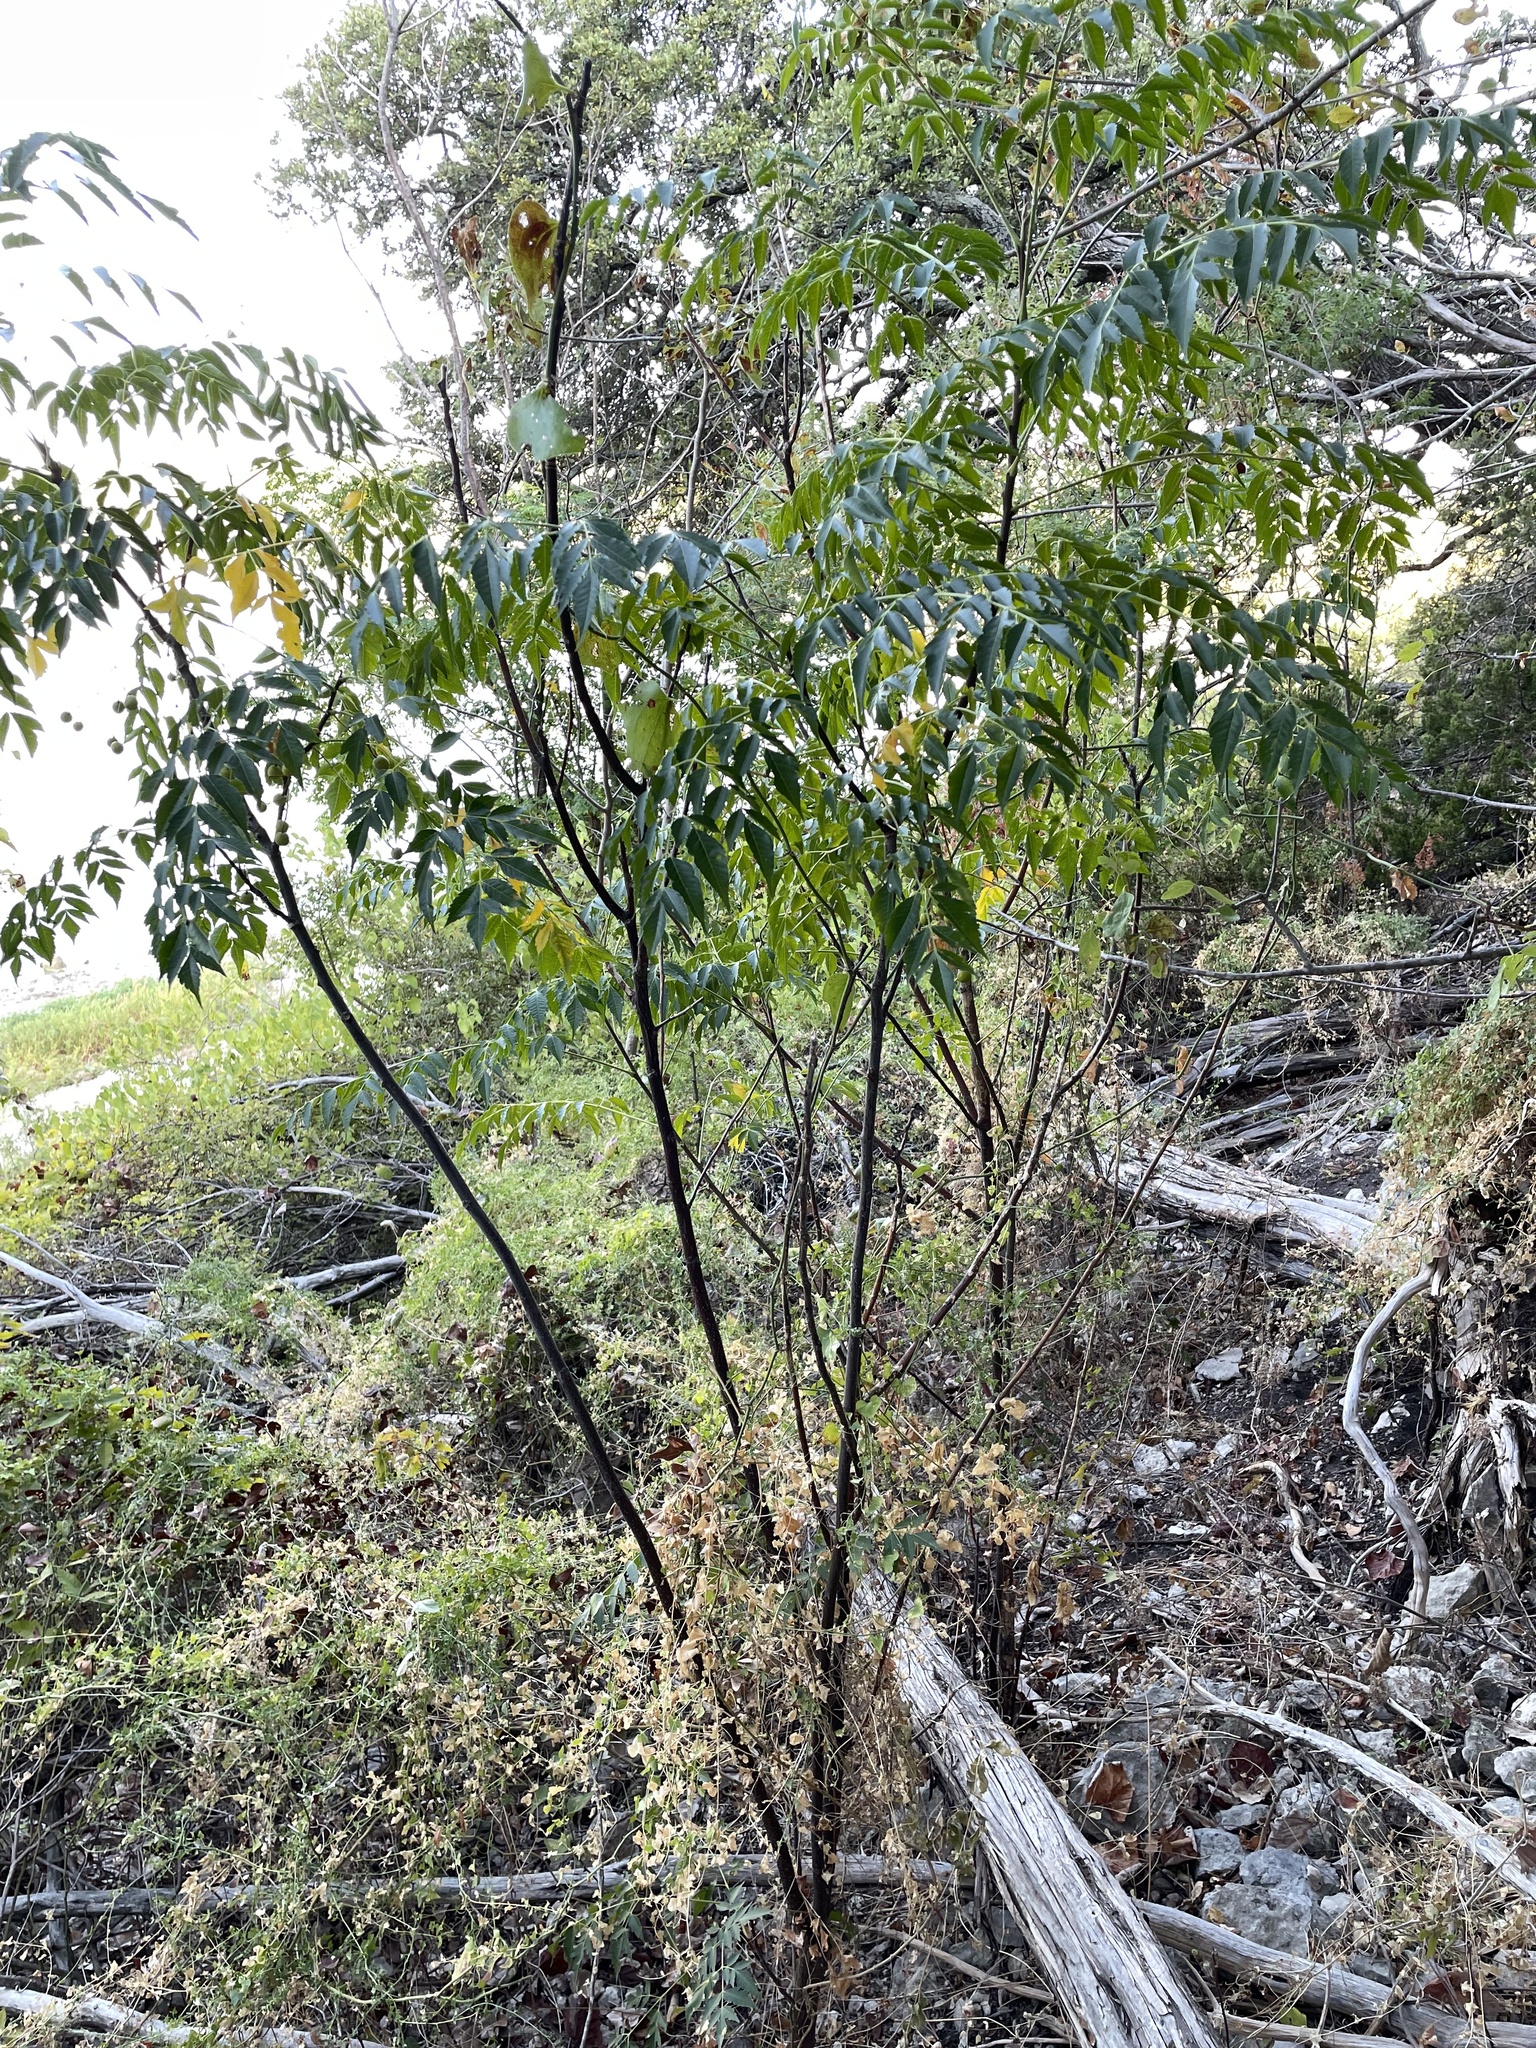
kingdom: Plantae
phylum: Tracheophyta
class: Magnoliopsida
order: Sapindales
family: Meliaceae
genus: Melia
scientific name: Melia azedarach
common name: Chinaberrytree
